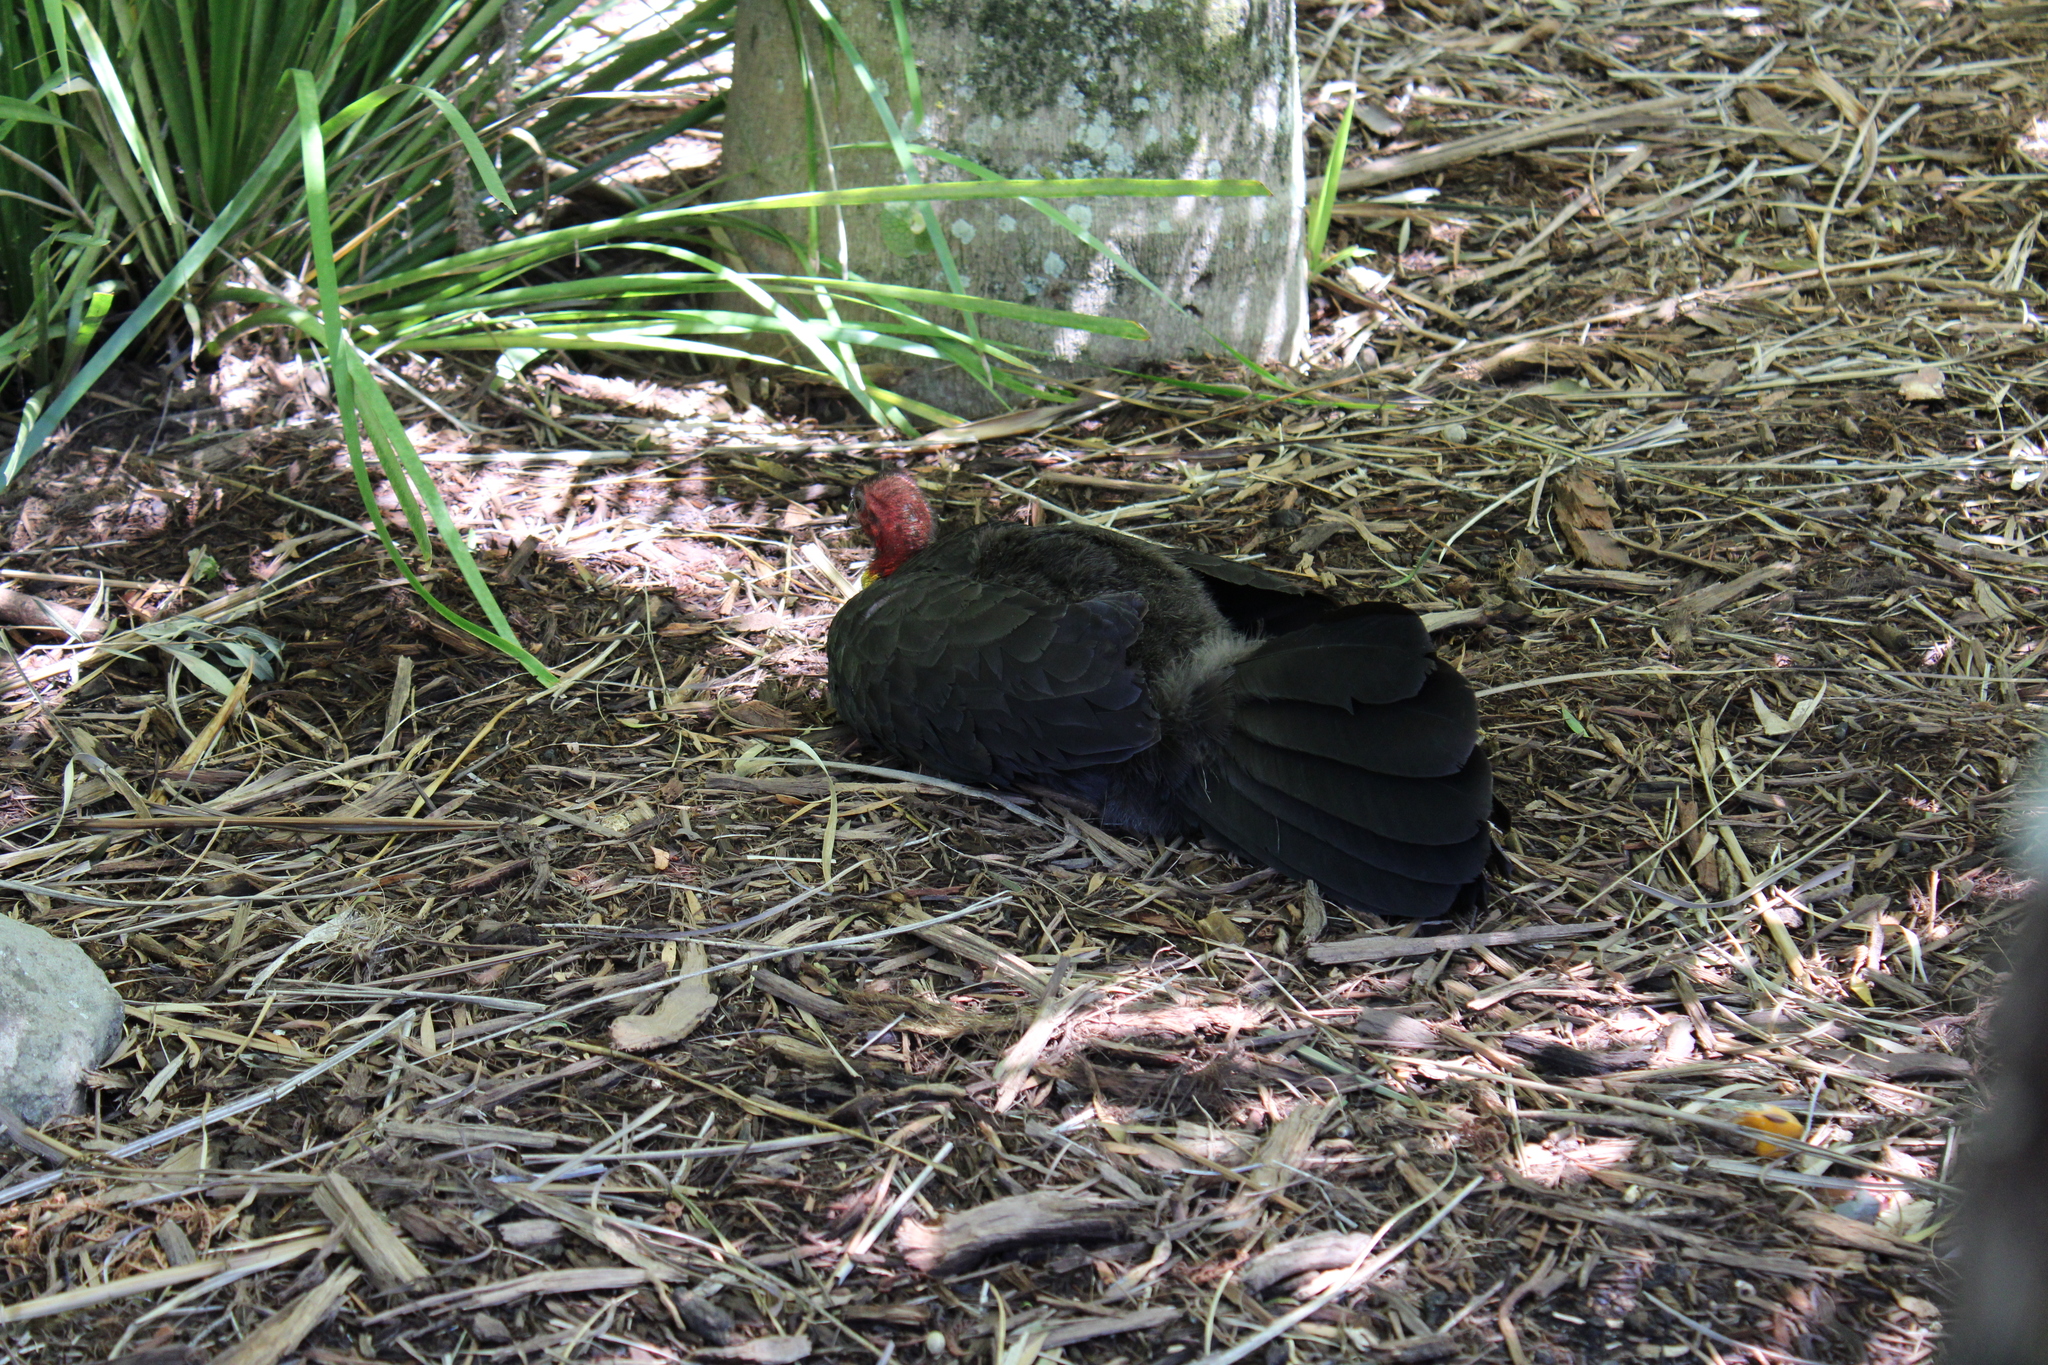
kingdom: Animalia
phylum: Chordata
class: Aves
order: Galliformes
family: Megapodiidae
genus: Alectura
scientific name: Alectura lathami
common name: Australian brushturkey
